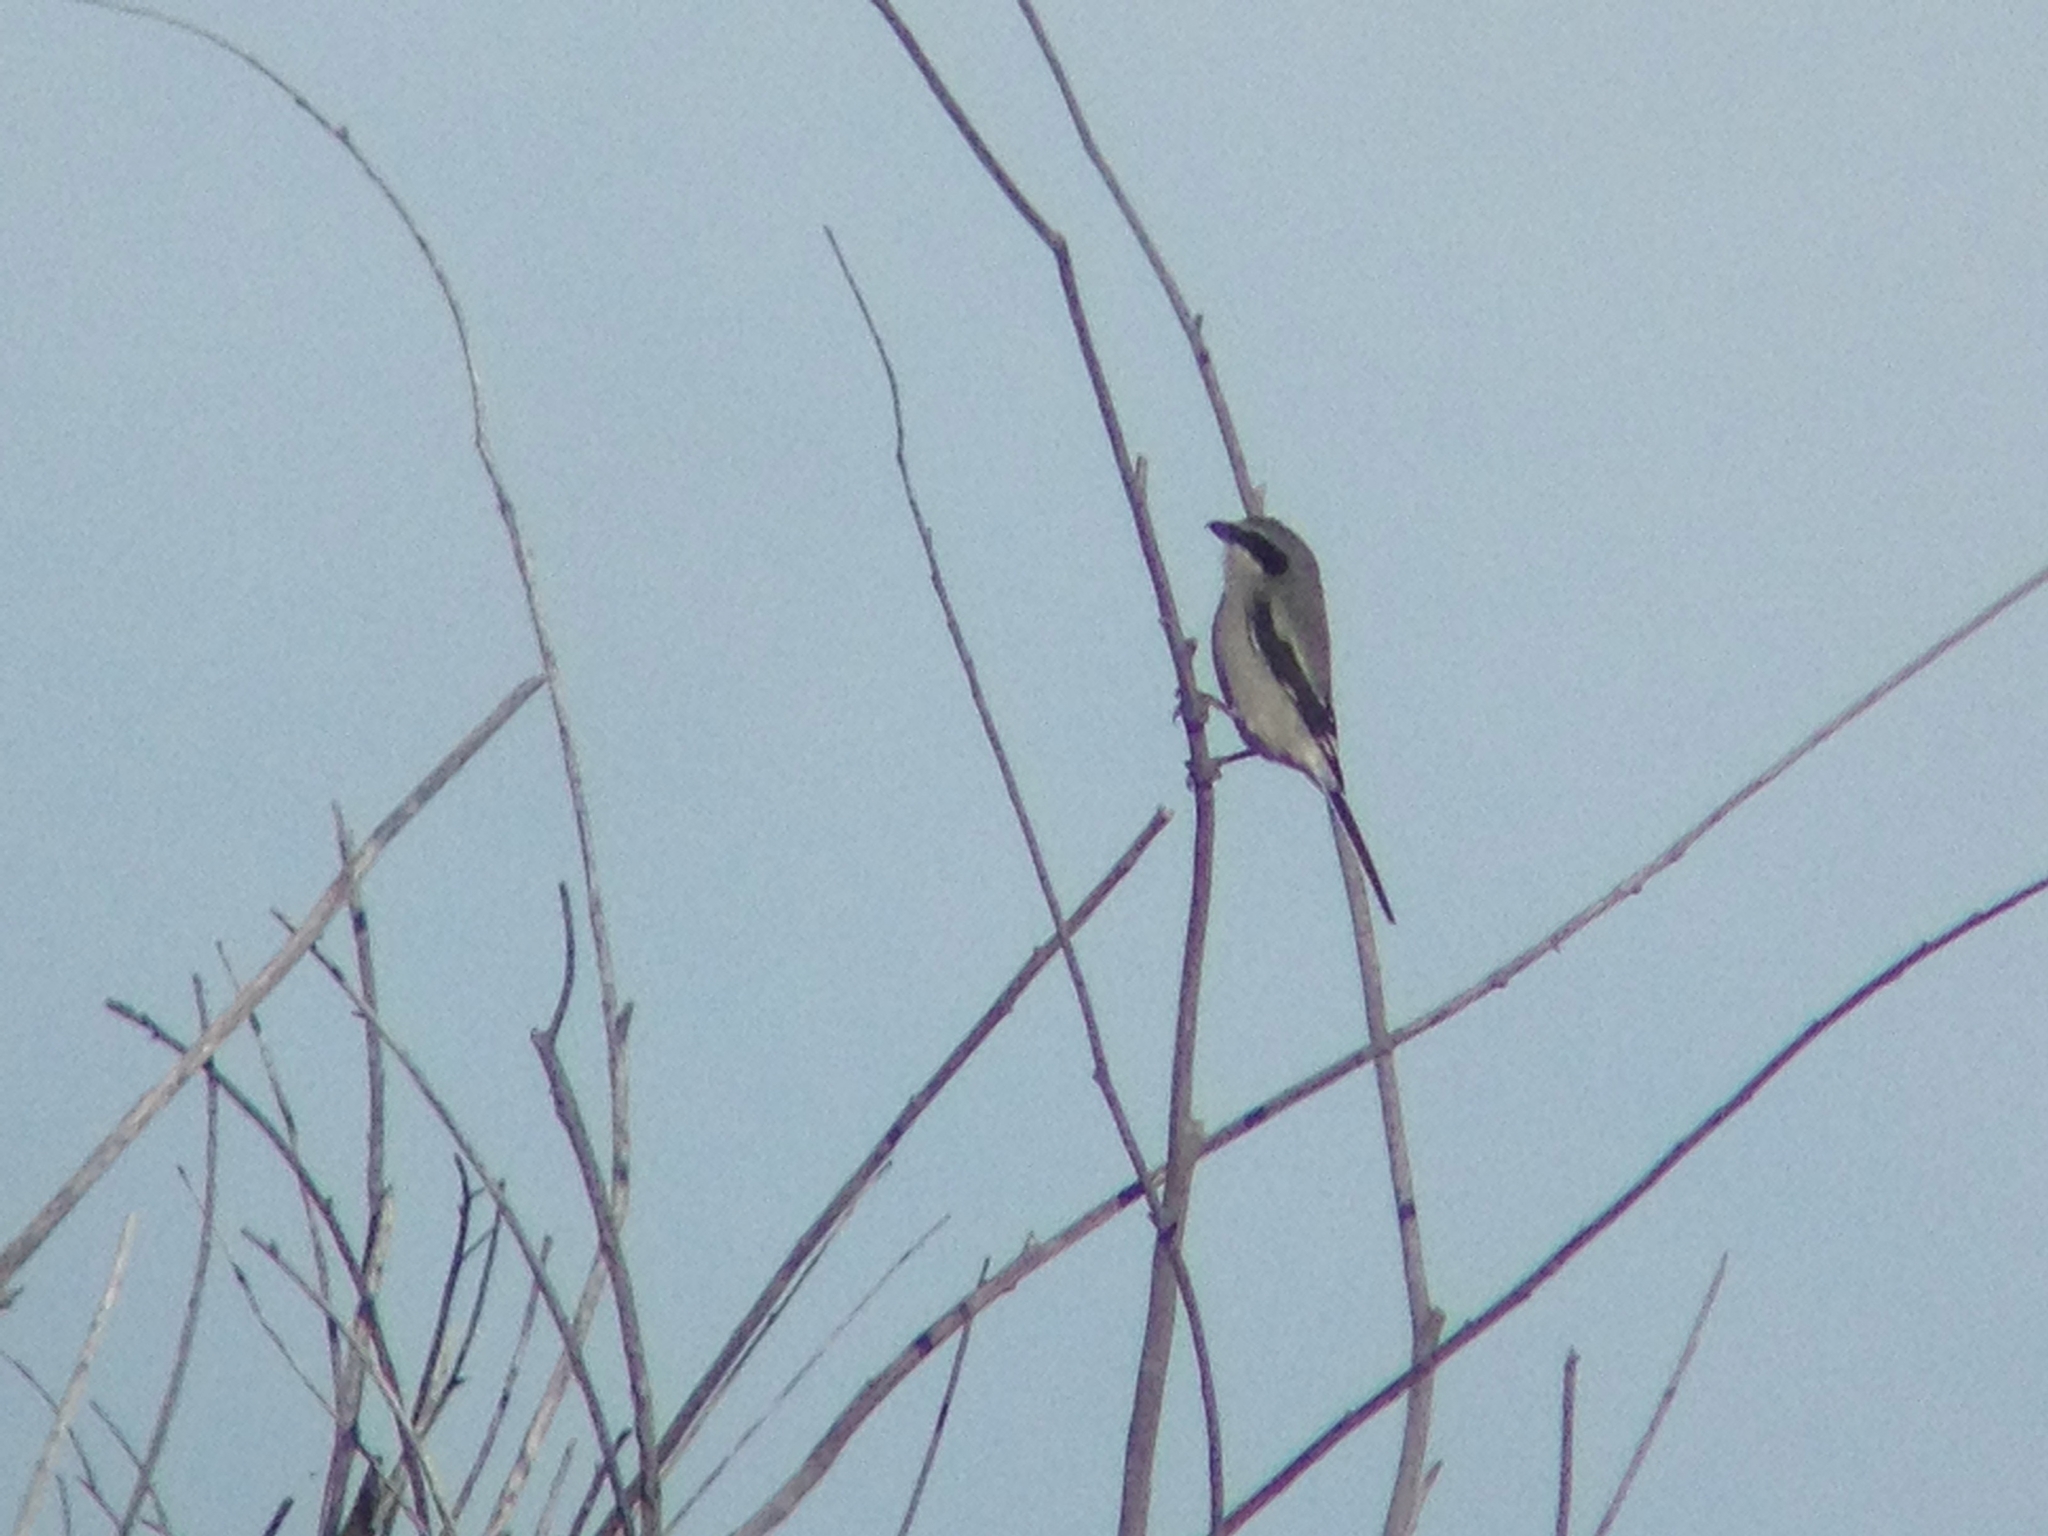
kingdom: Animalia
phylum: Chordata
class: Aves
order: Passeriformes
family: Laniidae
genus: Lanius
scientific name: Lanius ludovicianus
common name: Loggerhead shrike
